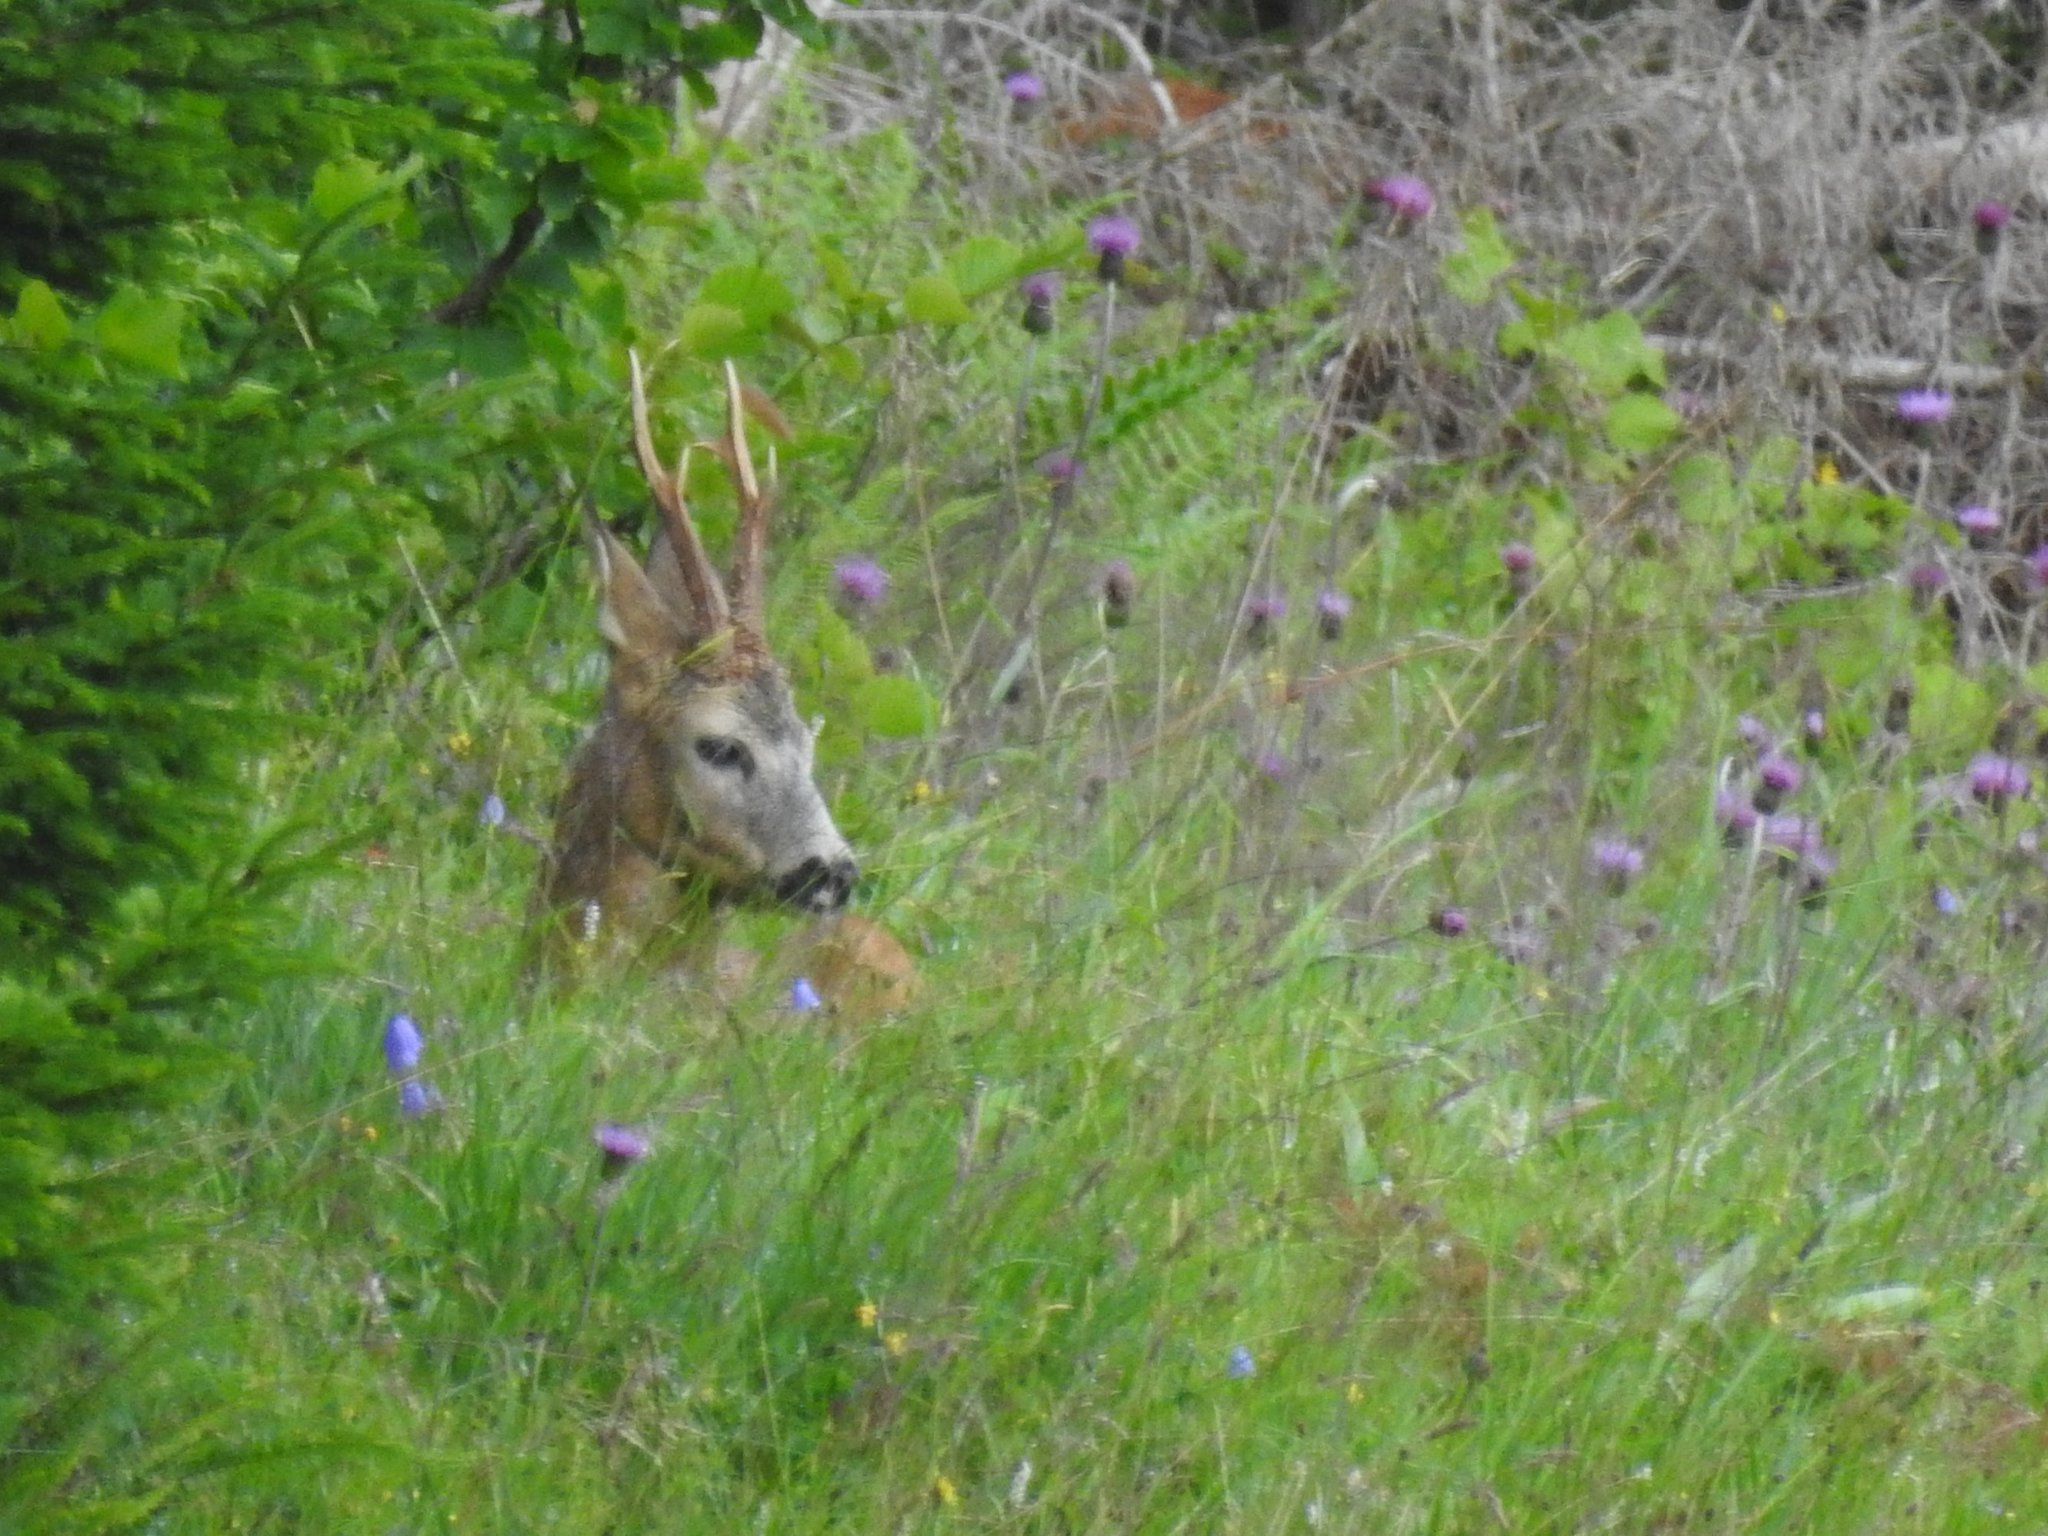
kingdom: Animalia
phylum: Chordata
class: Mammalia
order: Artiodactyla
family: Cervidae
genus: Capreolus
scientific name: Capreolus capreolus
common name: Western roe deer
